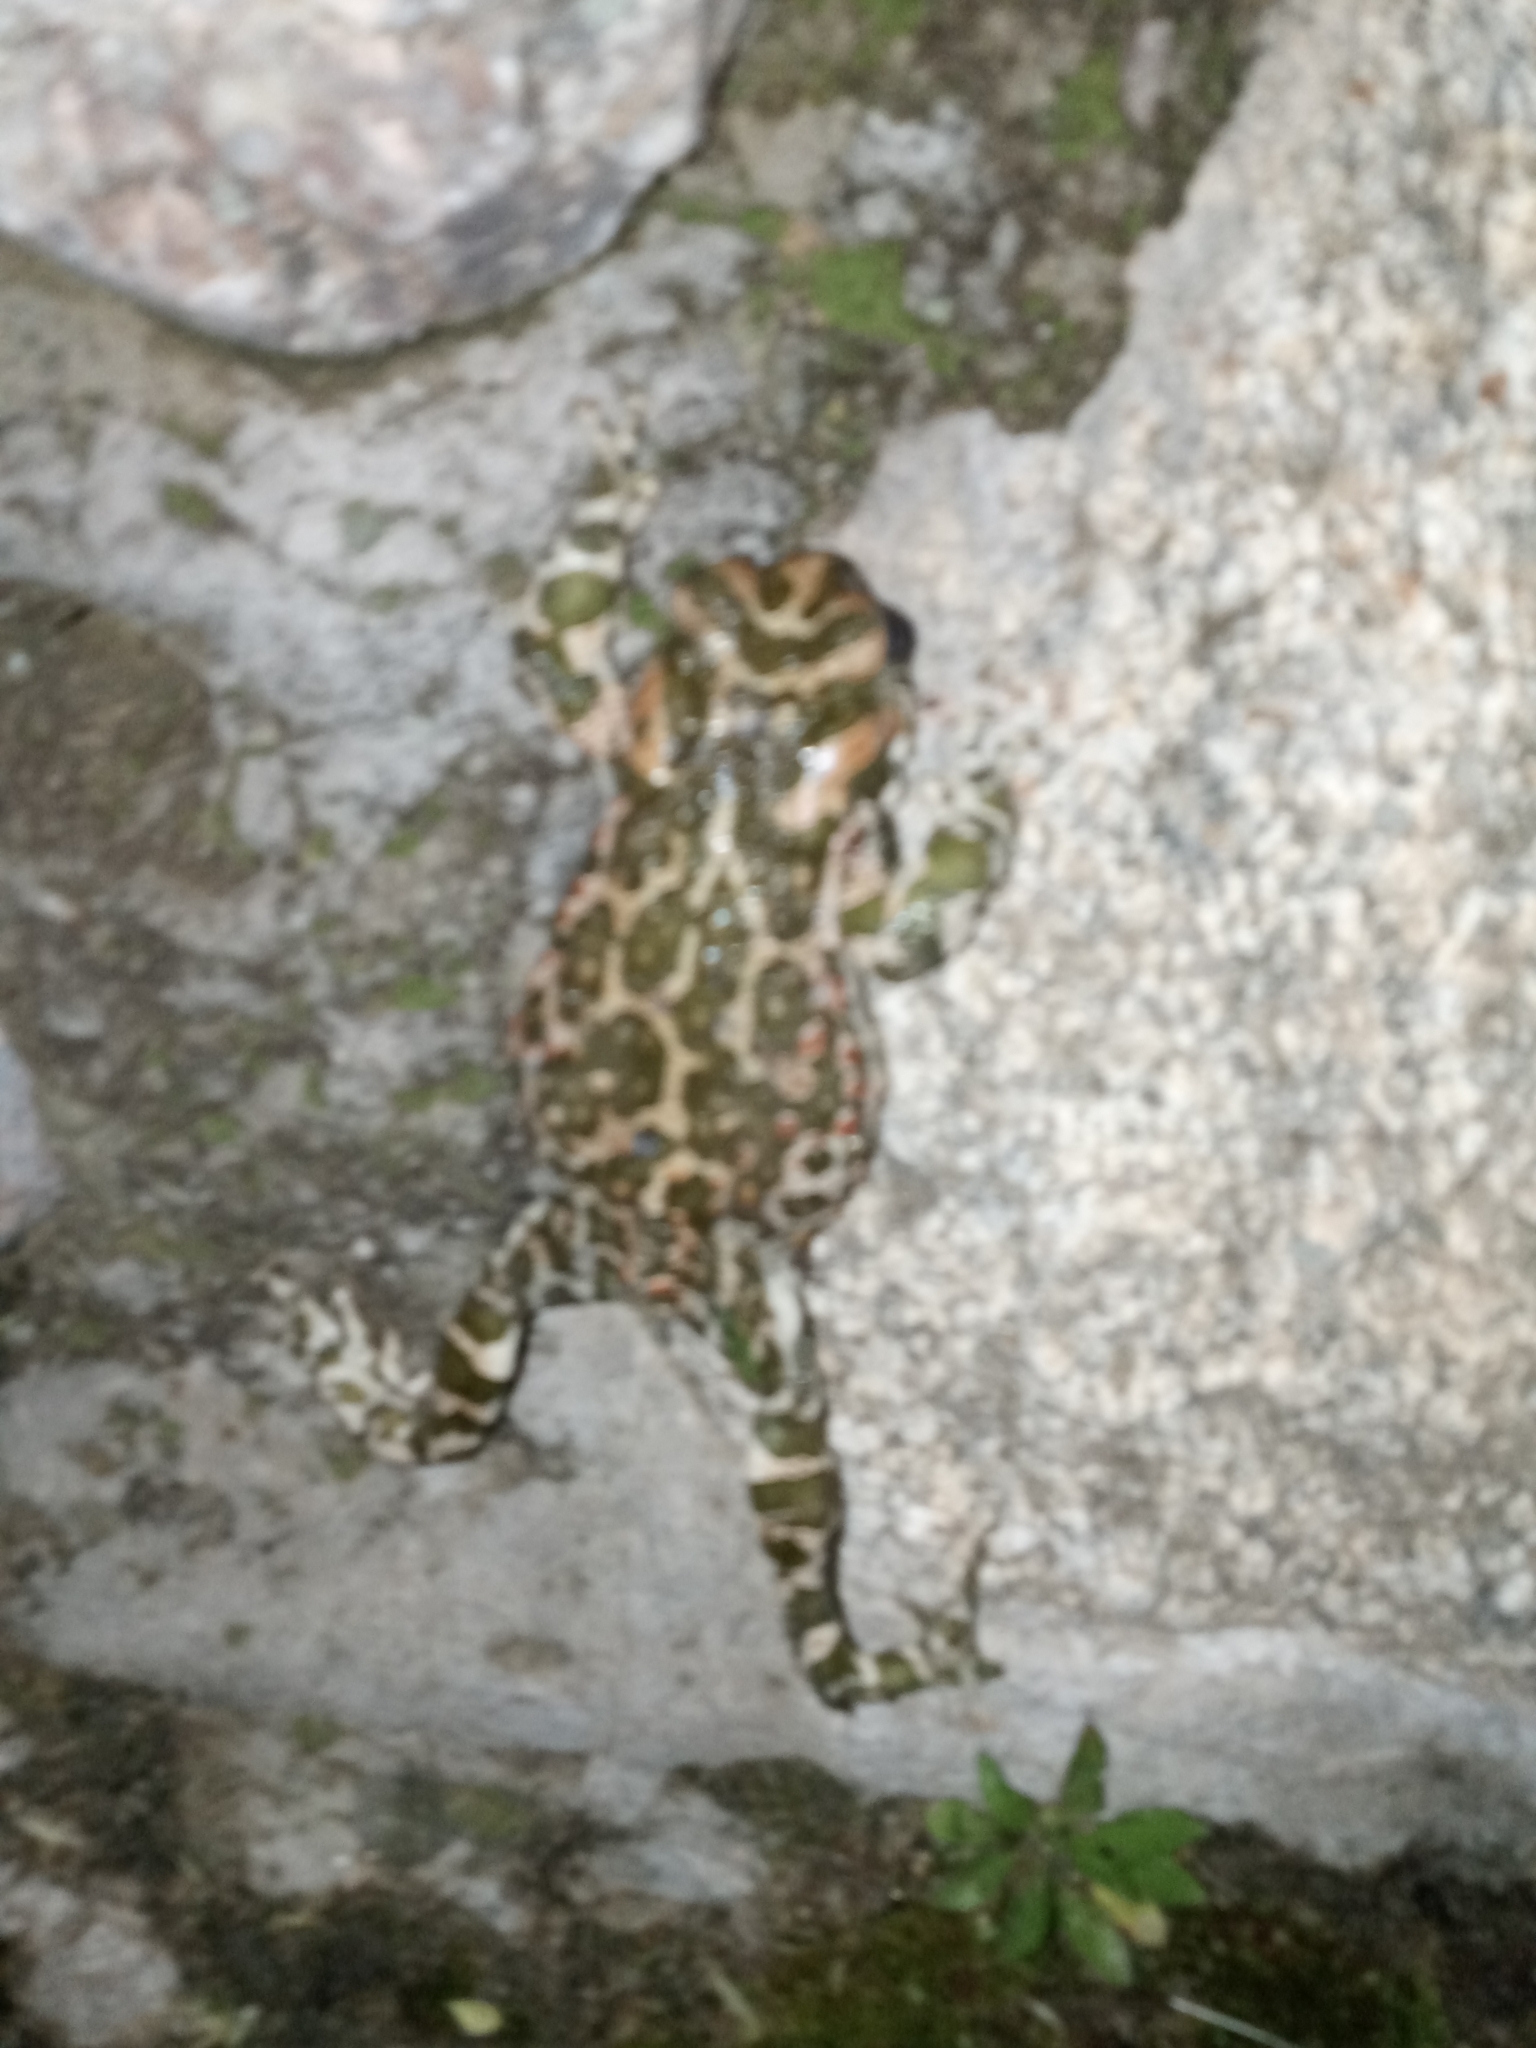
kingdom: Animalia
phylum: Chordata
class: Amphibia
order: Anura
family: Bufonidae
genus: Bufotes
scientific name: Bufotes viridis
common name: European green toad
